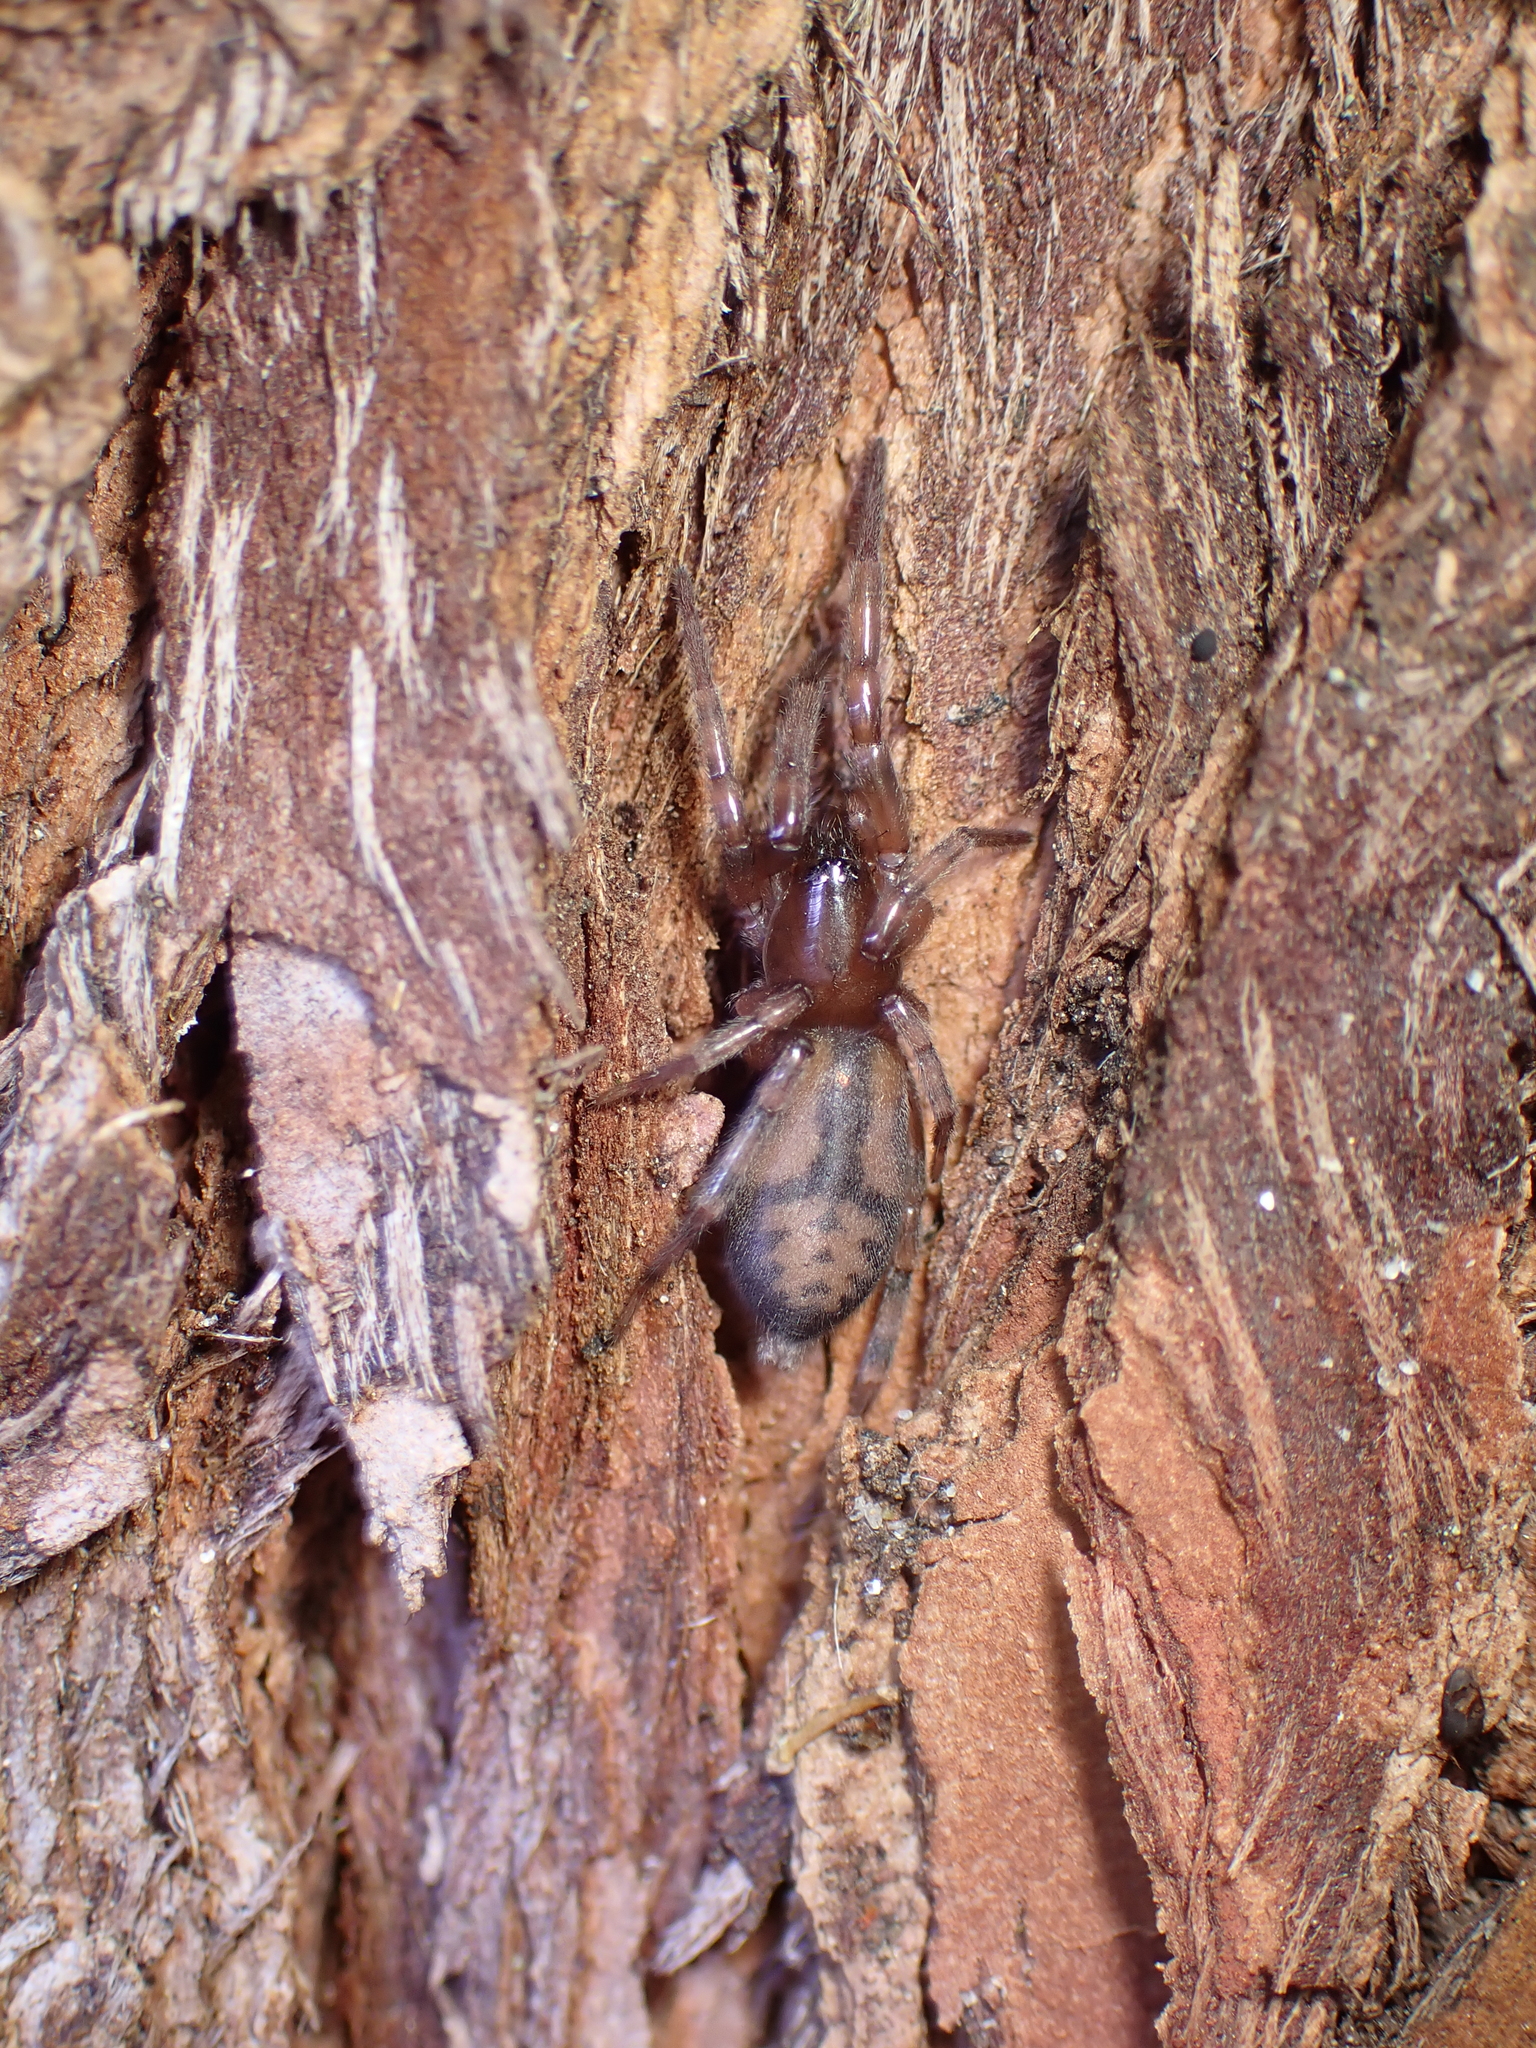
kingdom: Animalia
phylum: Arthropoda
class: Arachnida
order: Araneae
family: Gnaphosidae
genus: Intruda
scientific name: Intruda signata
